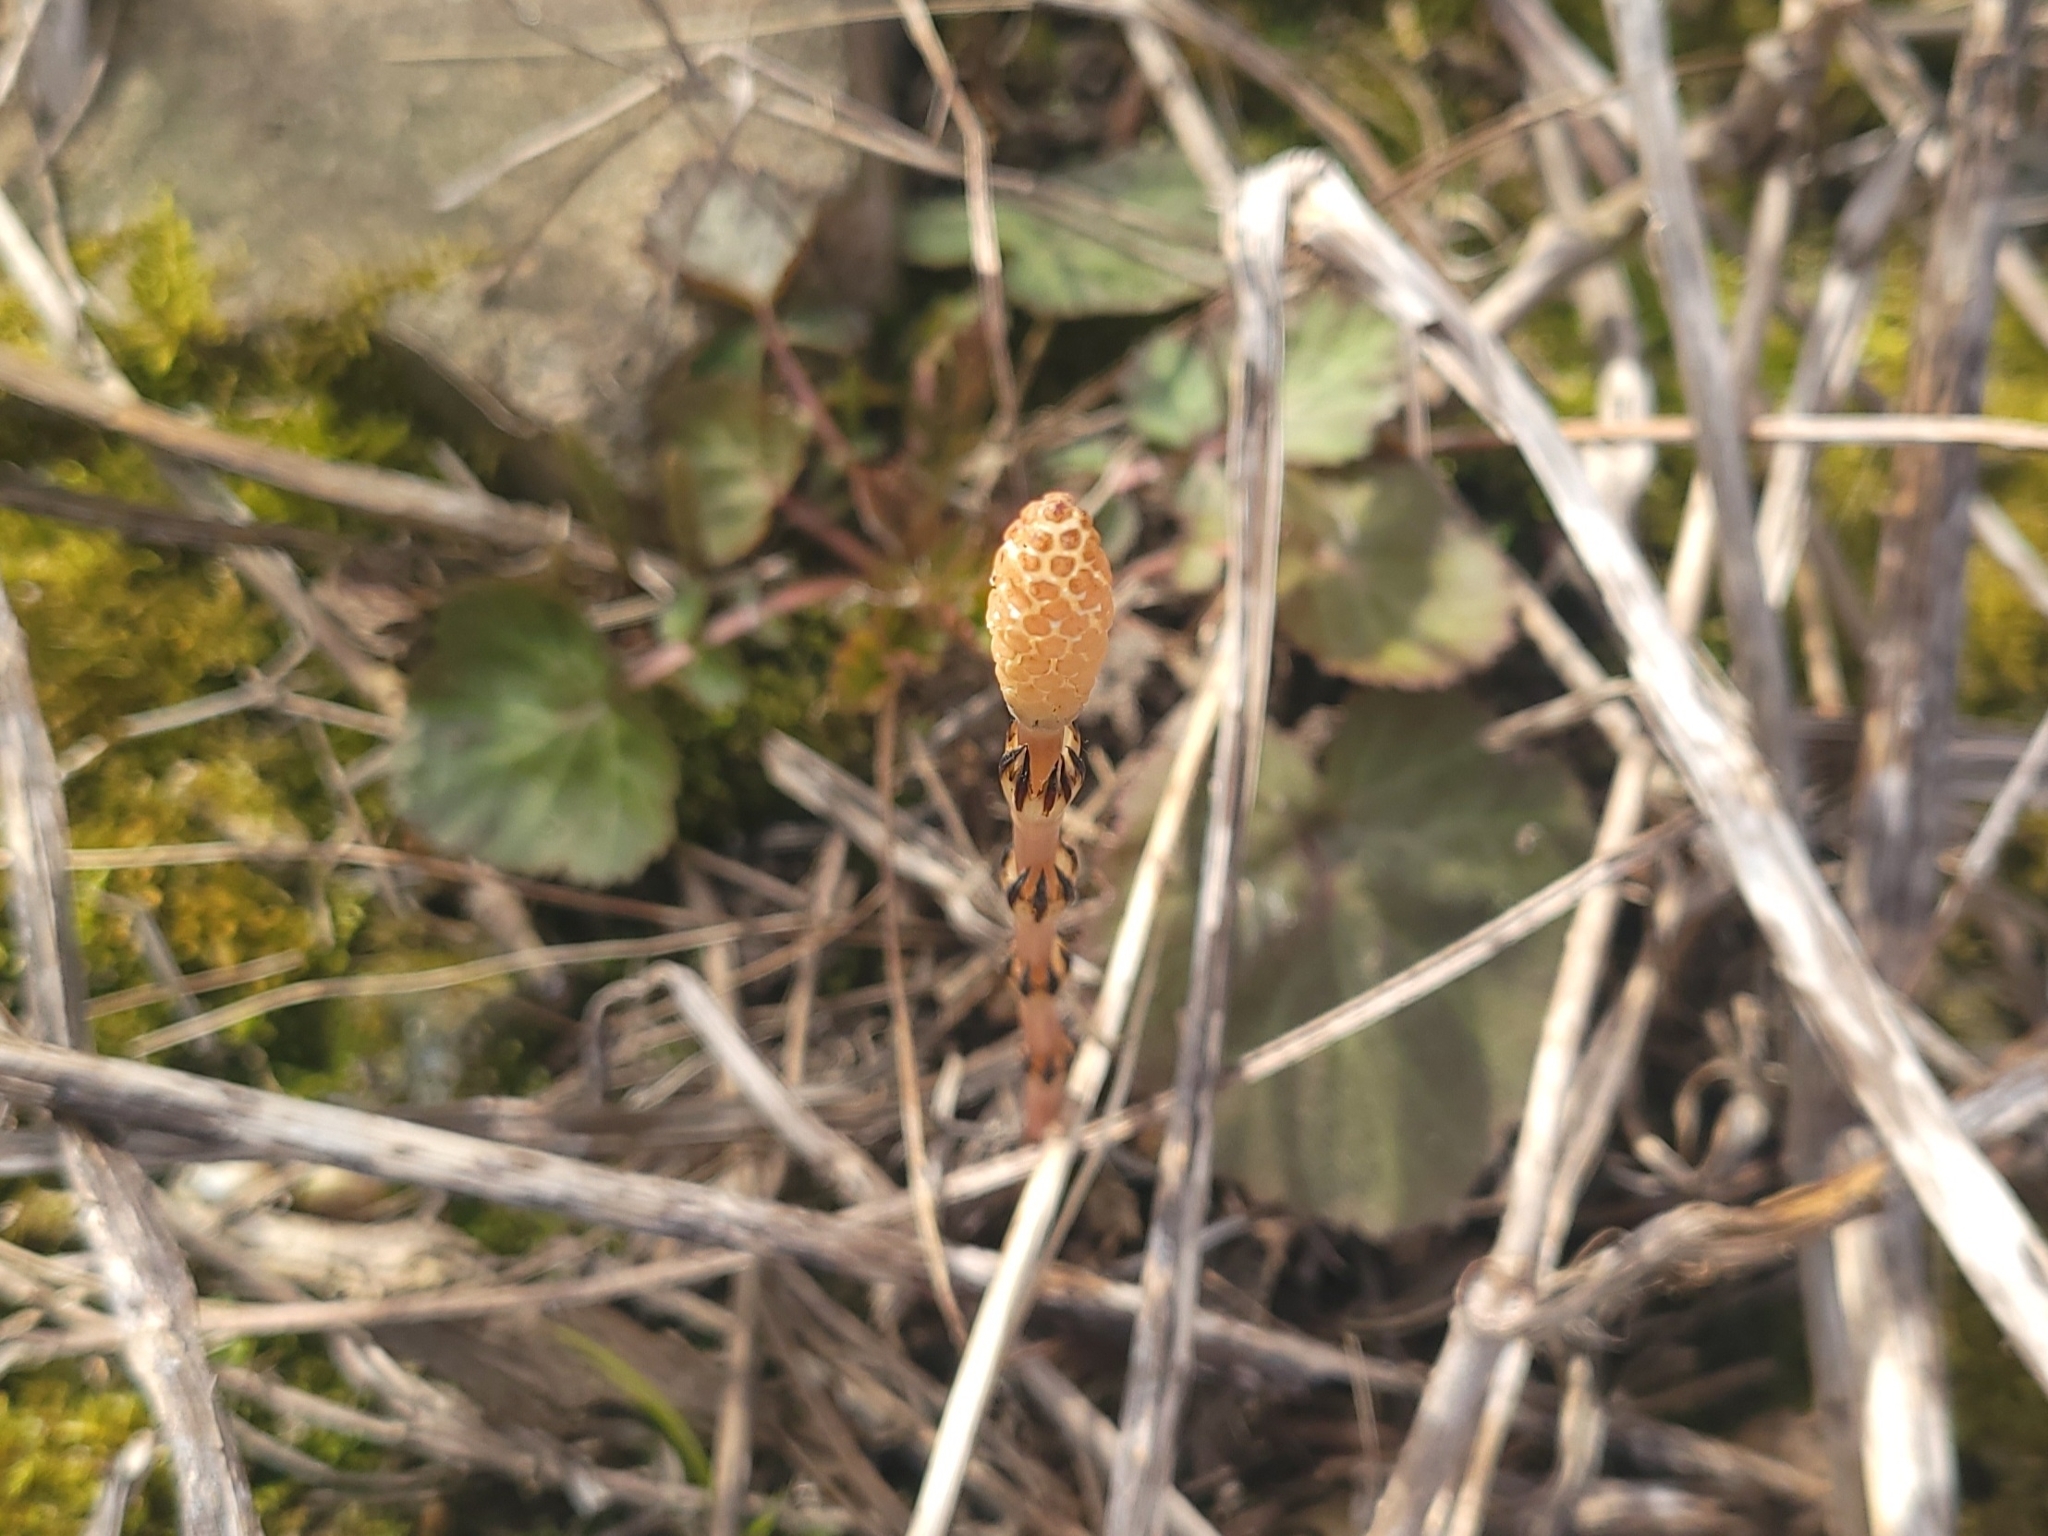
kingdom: Plantae
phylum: Tracheophyta
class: Polypodiopsida
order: Equisetales
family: Equisetaceae
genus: Equisetum
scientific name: Equisetum arvense
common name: Field horsetail
